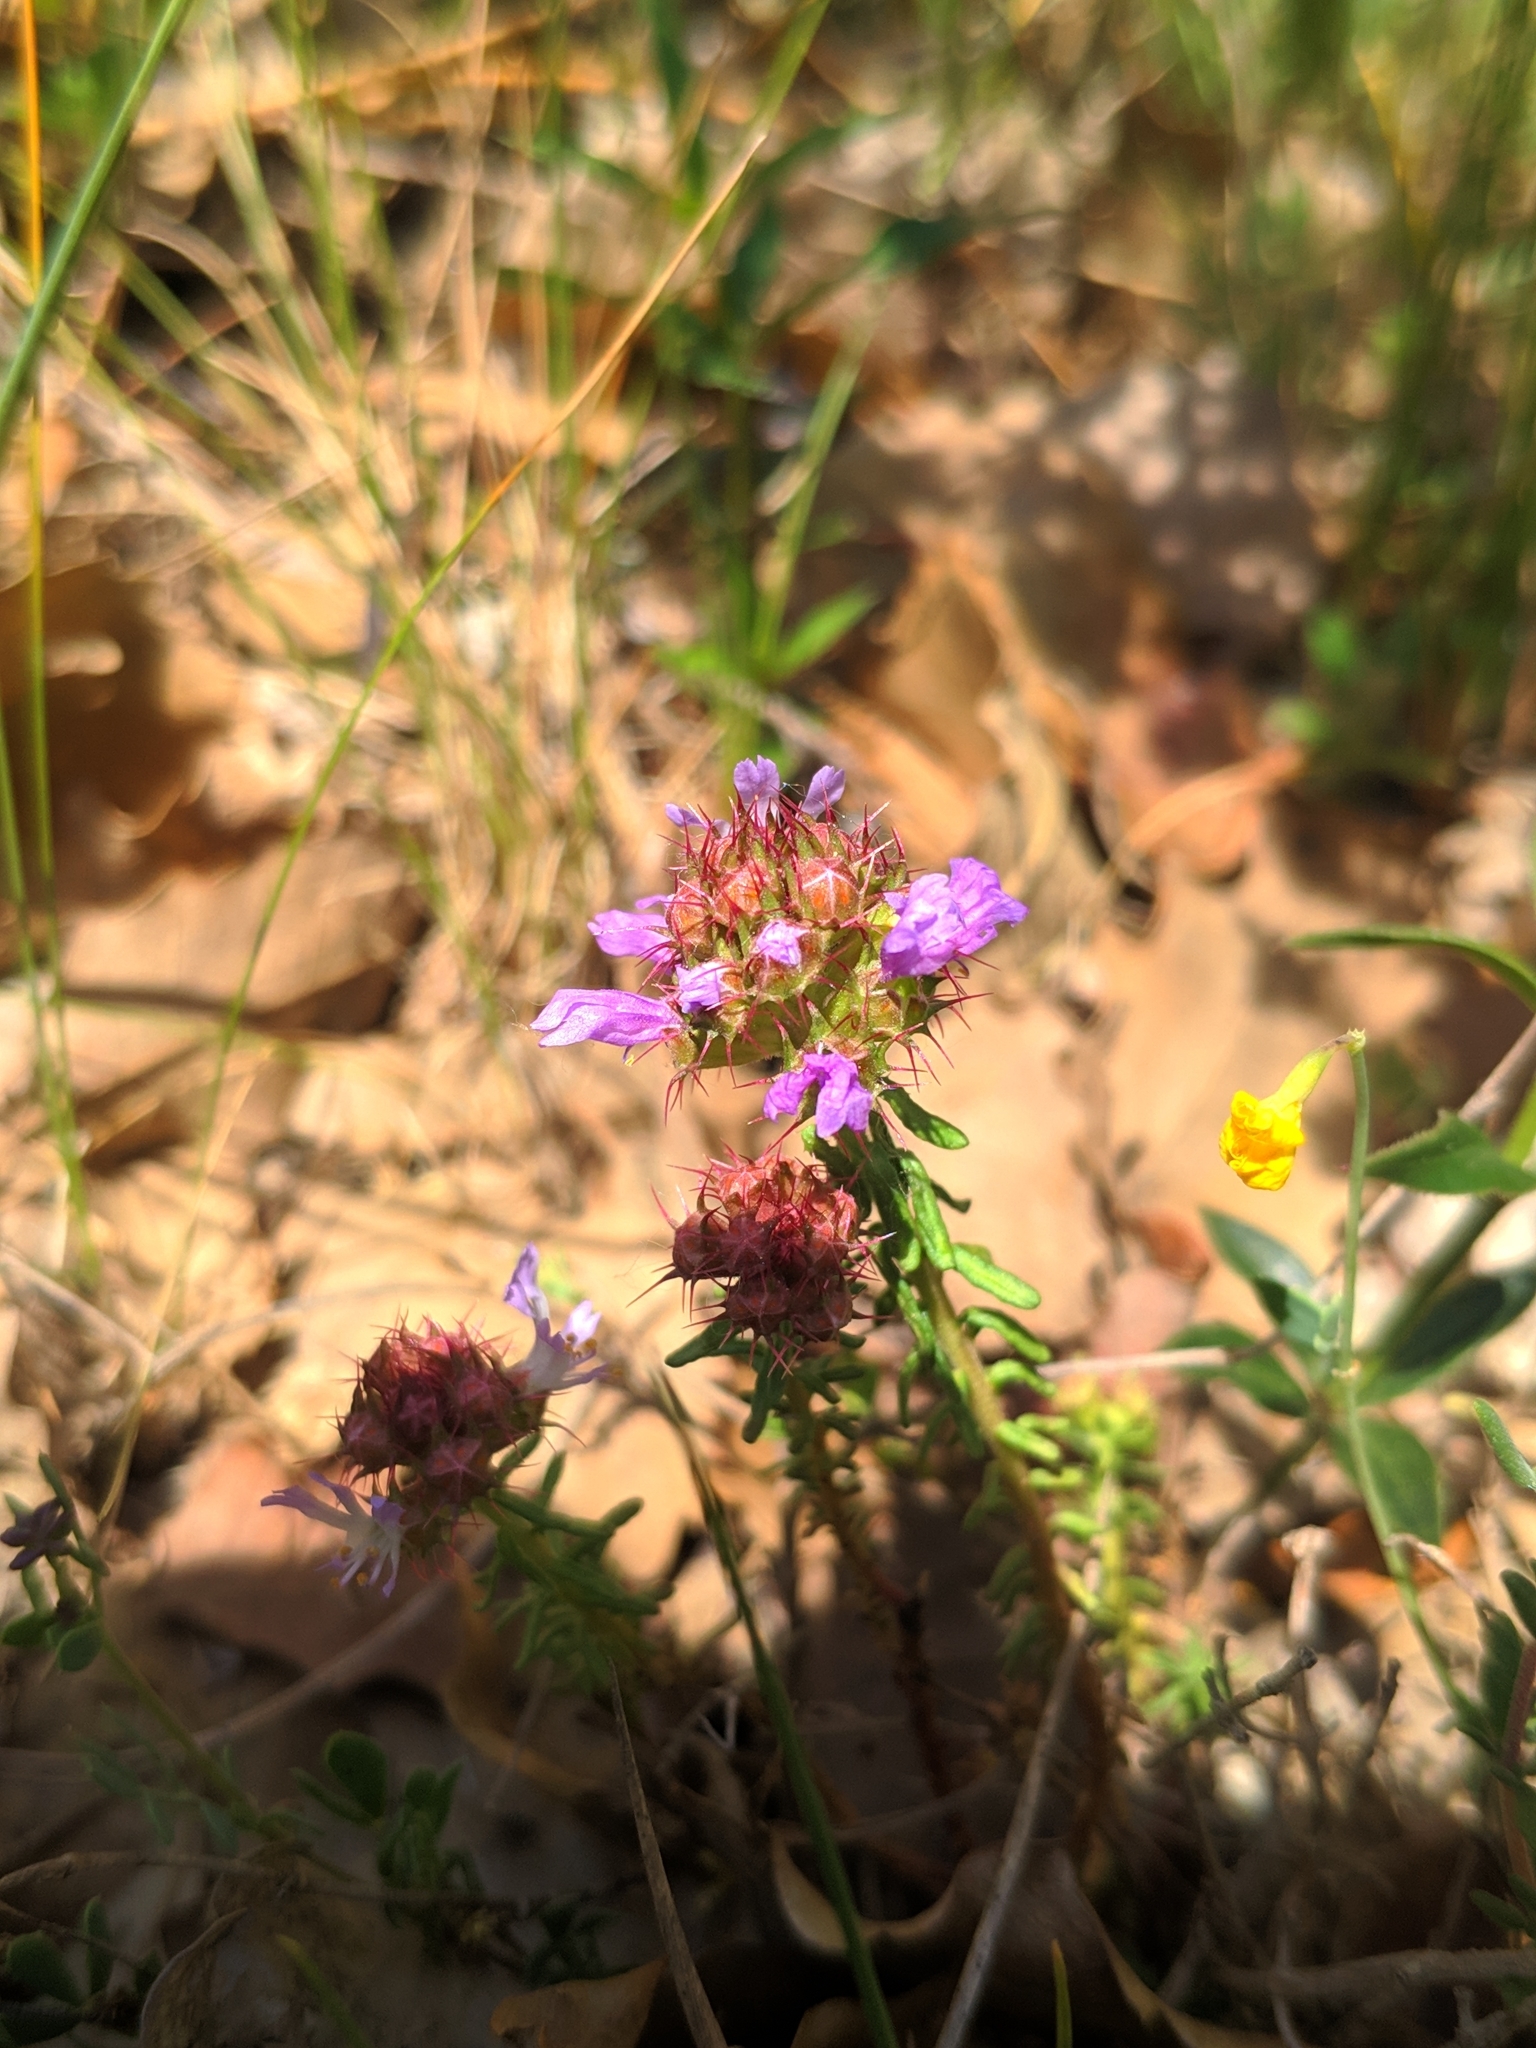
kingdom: Plantae
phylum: Tracheophyta
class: Magnoliopsida
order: Ericales
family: Primulaceae
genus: Coris
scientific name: Coris monspeliensis
